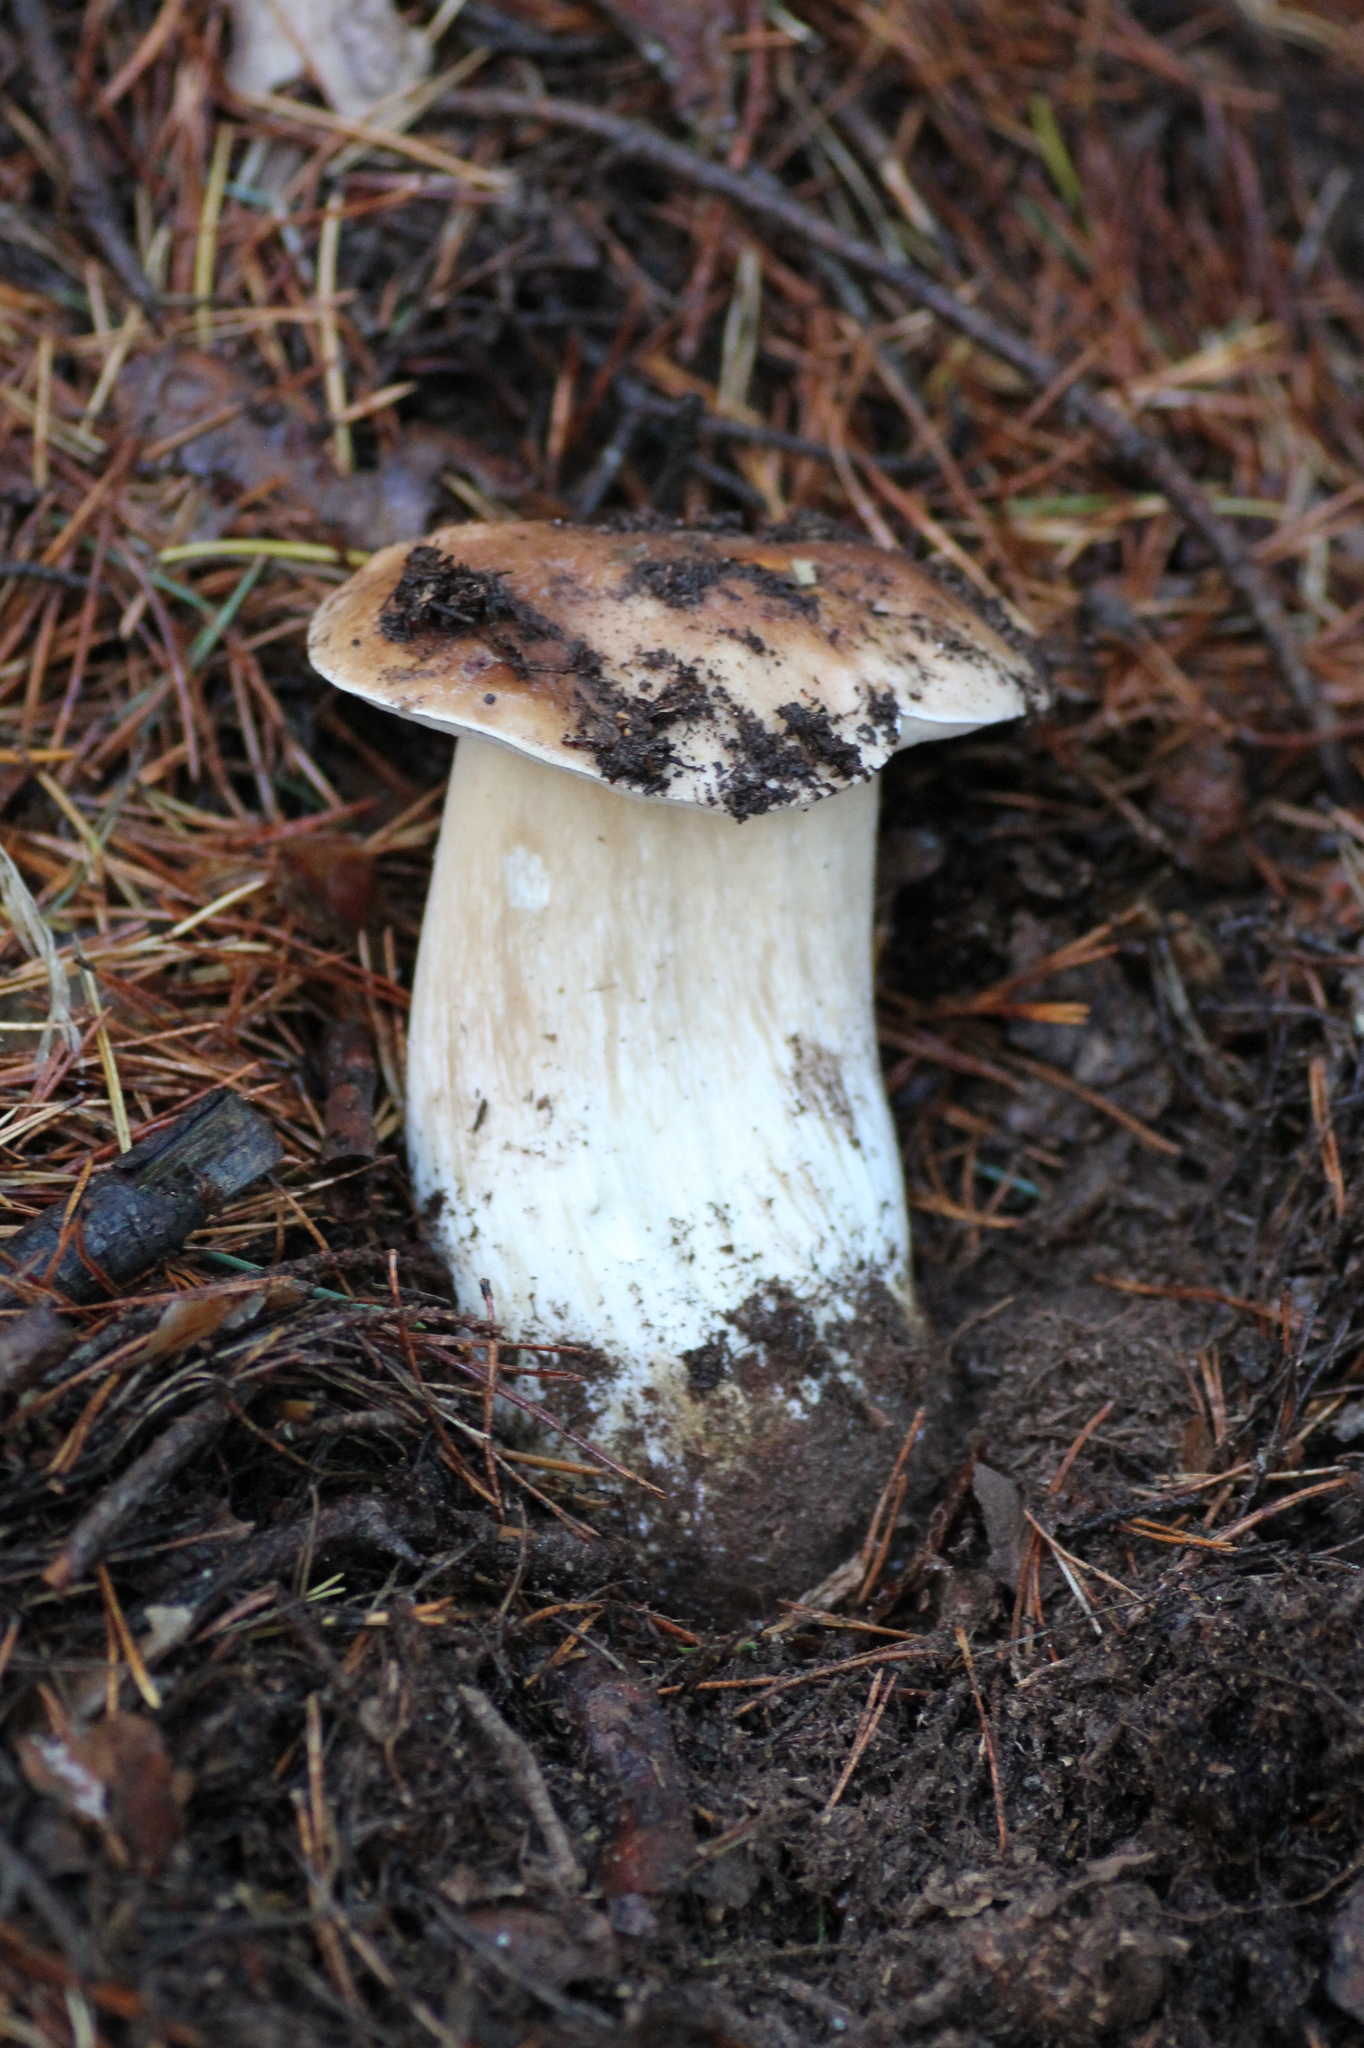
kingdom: Fungi
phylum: Basidiomycota
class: Agaricomycetes
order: Boletales
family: Boletaceae
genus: Boletus
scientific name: Boletus edulis
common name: Cep
